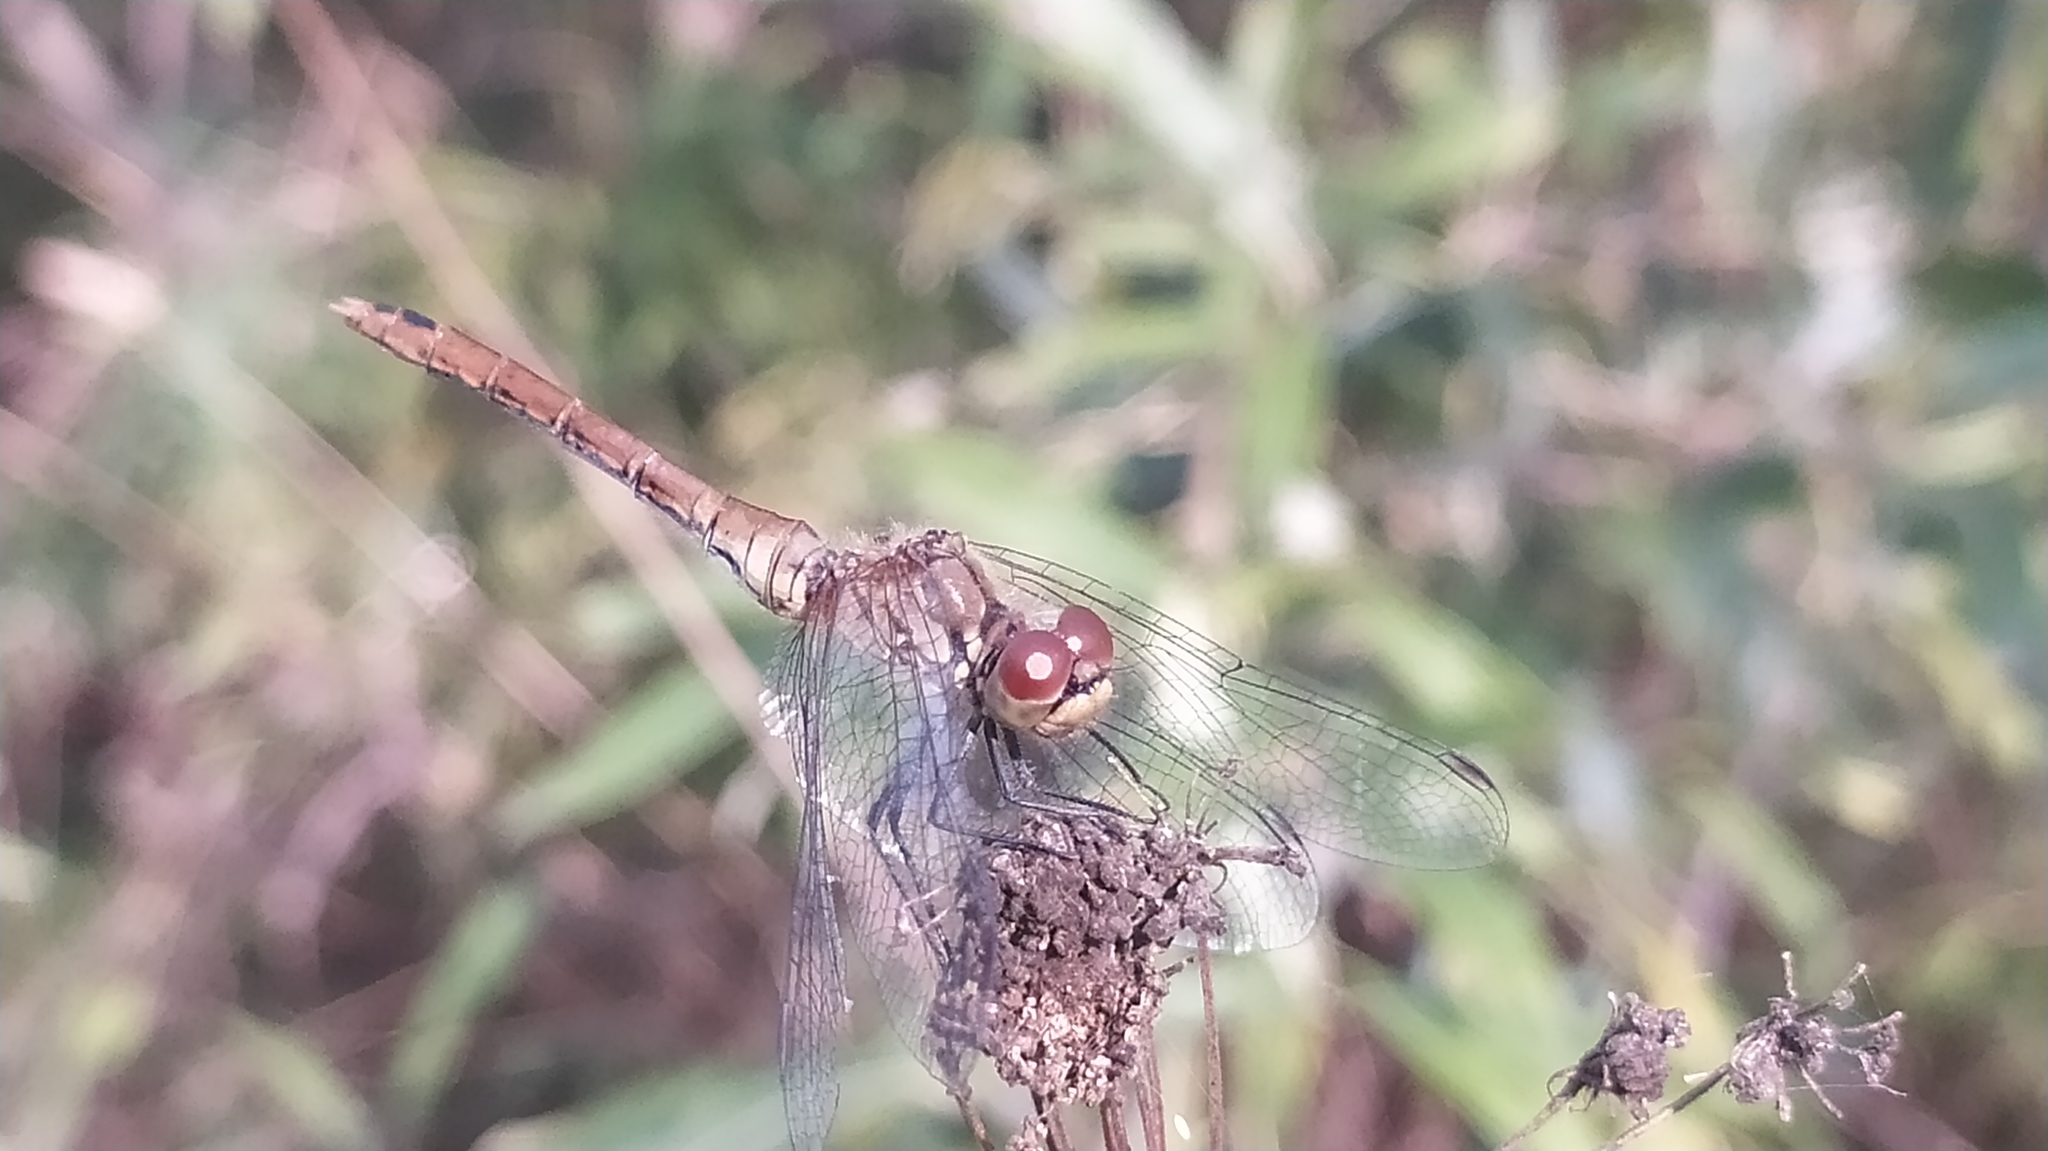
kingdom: Animalia
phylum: Arthropoda
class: Insecta
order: Odonata
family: Libellulidae
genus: Sympetrum
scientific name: Sympetrum sanguineum
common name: Ruddy darter
